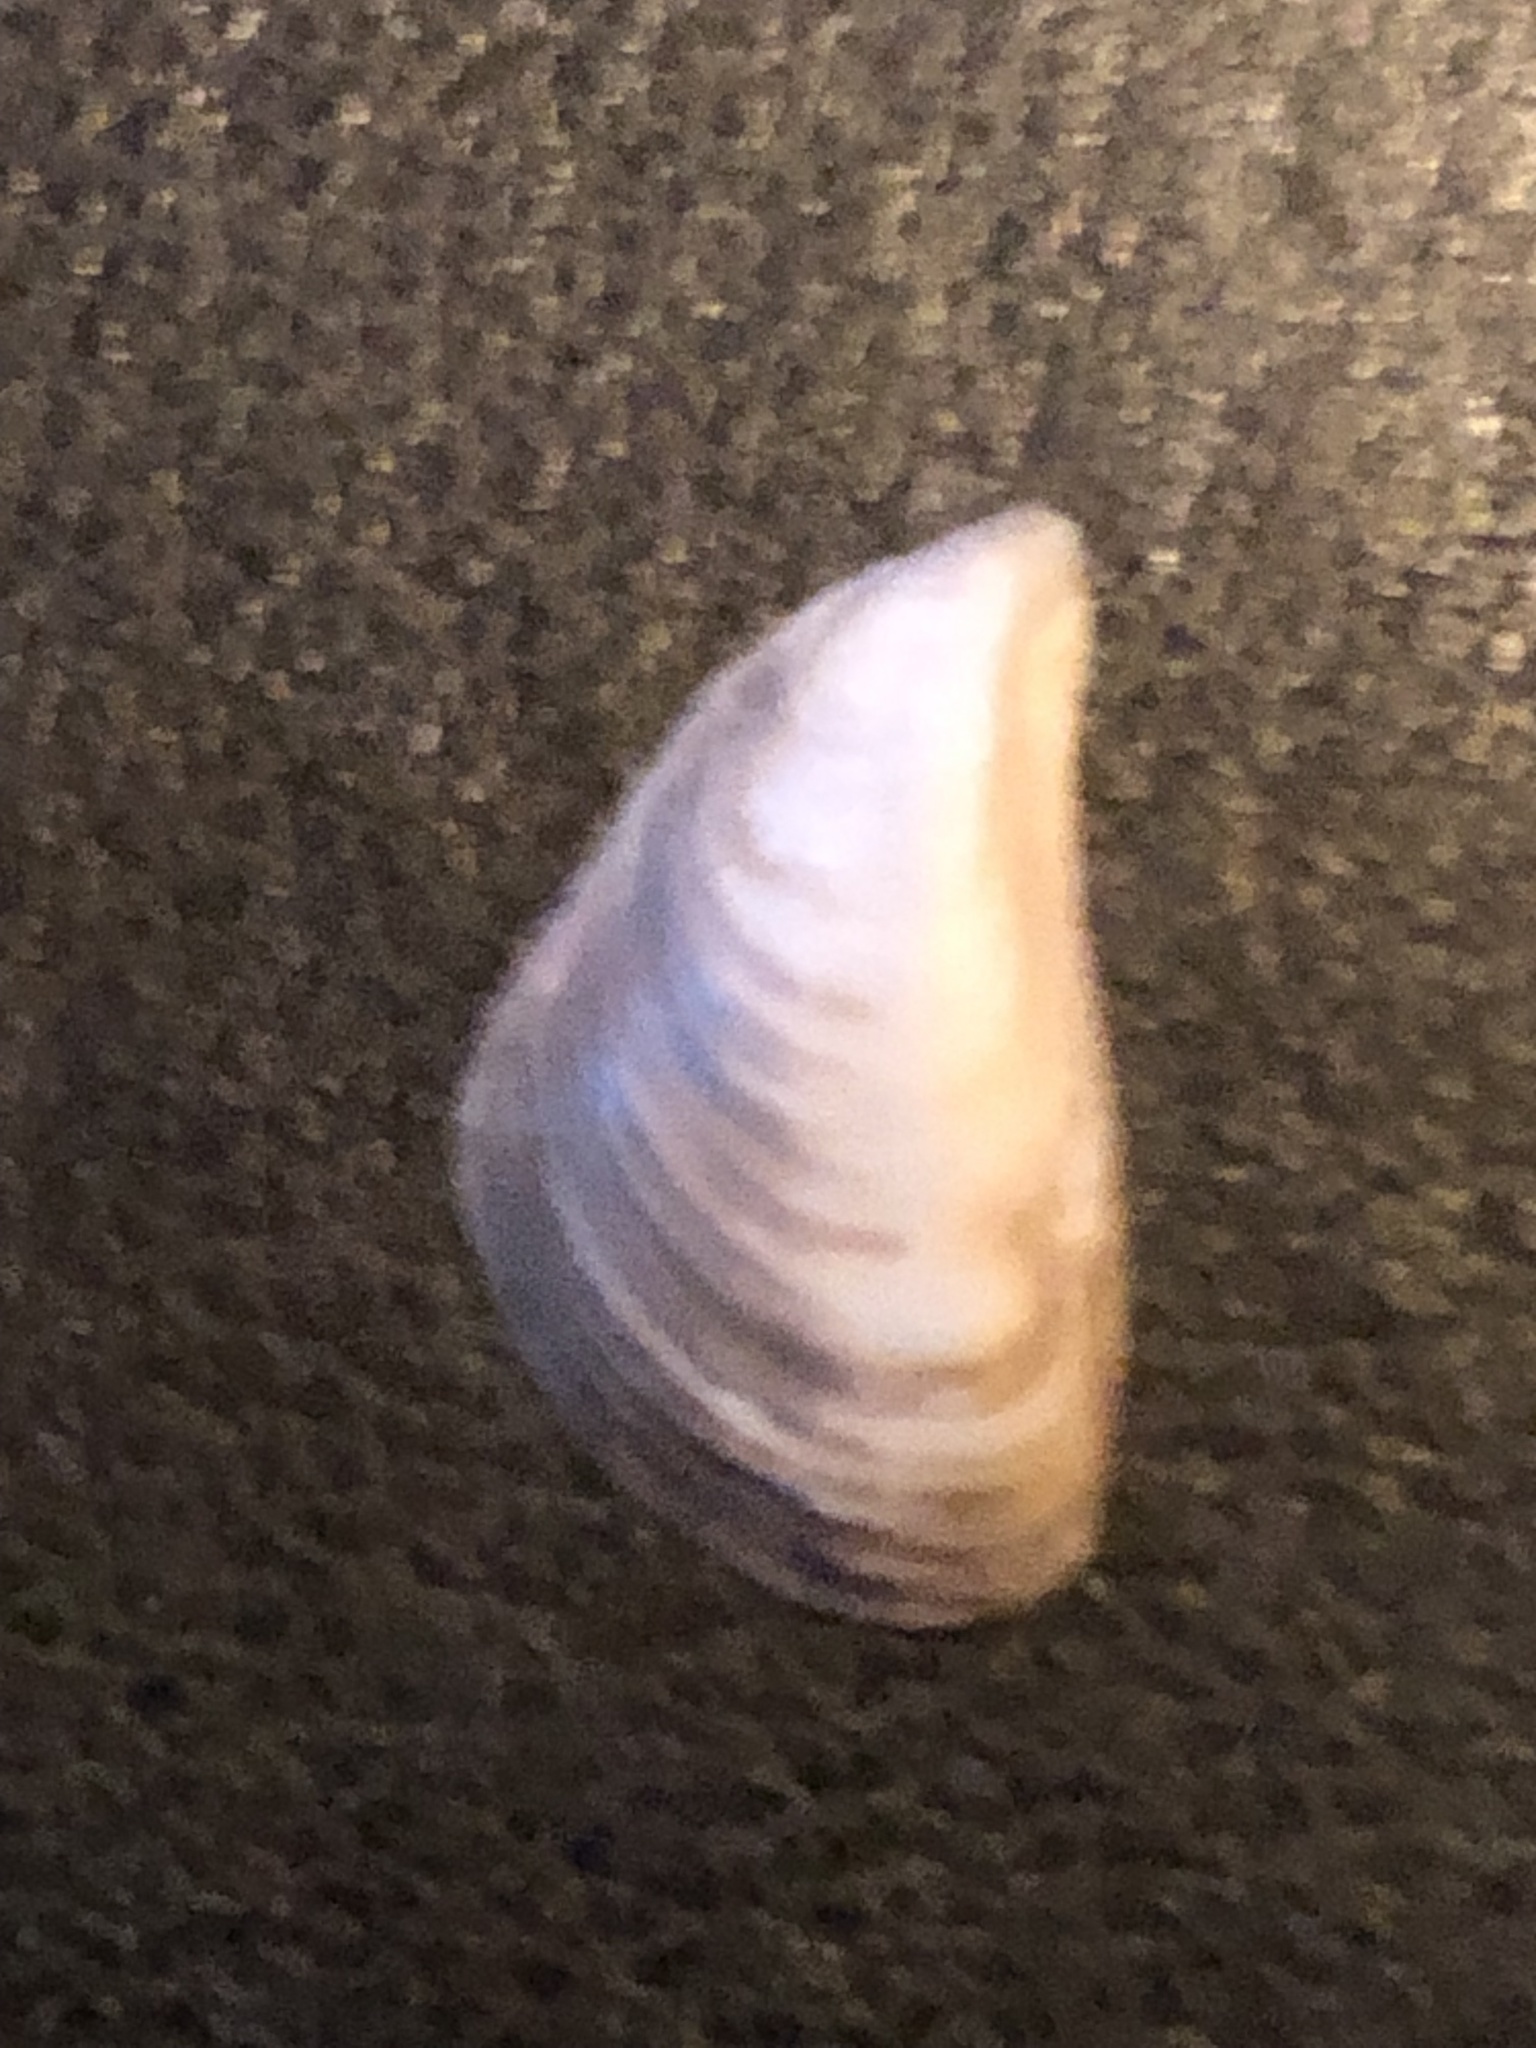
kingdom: Animalia
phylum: Mollusca
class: Bivalvia
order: Myida
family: Dreissenidae
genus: Dreissena
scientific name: Dreissena bugensis
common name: Quagga mussel
